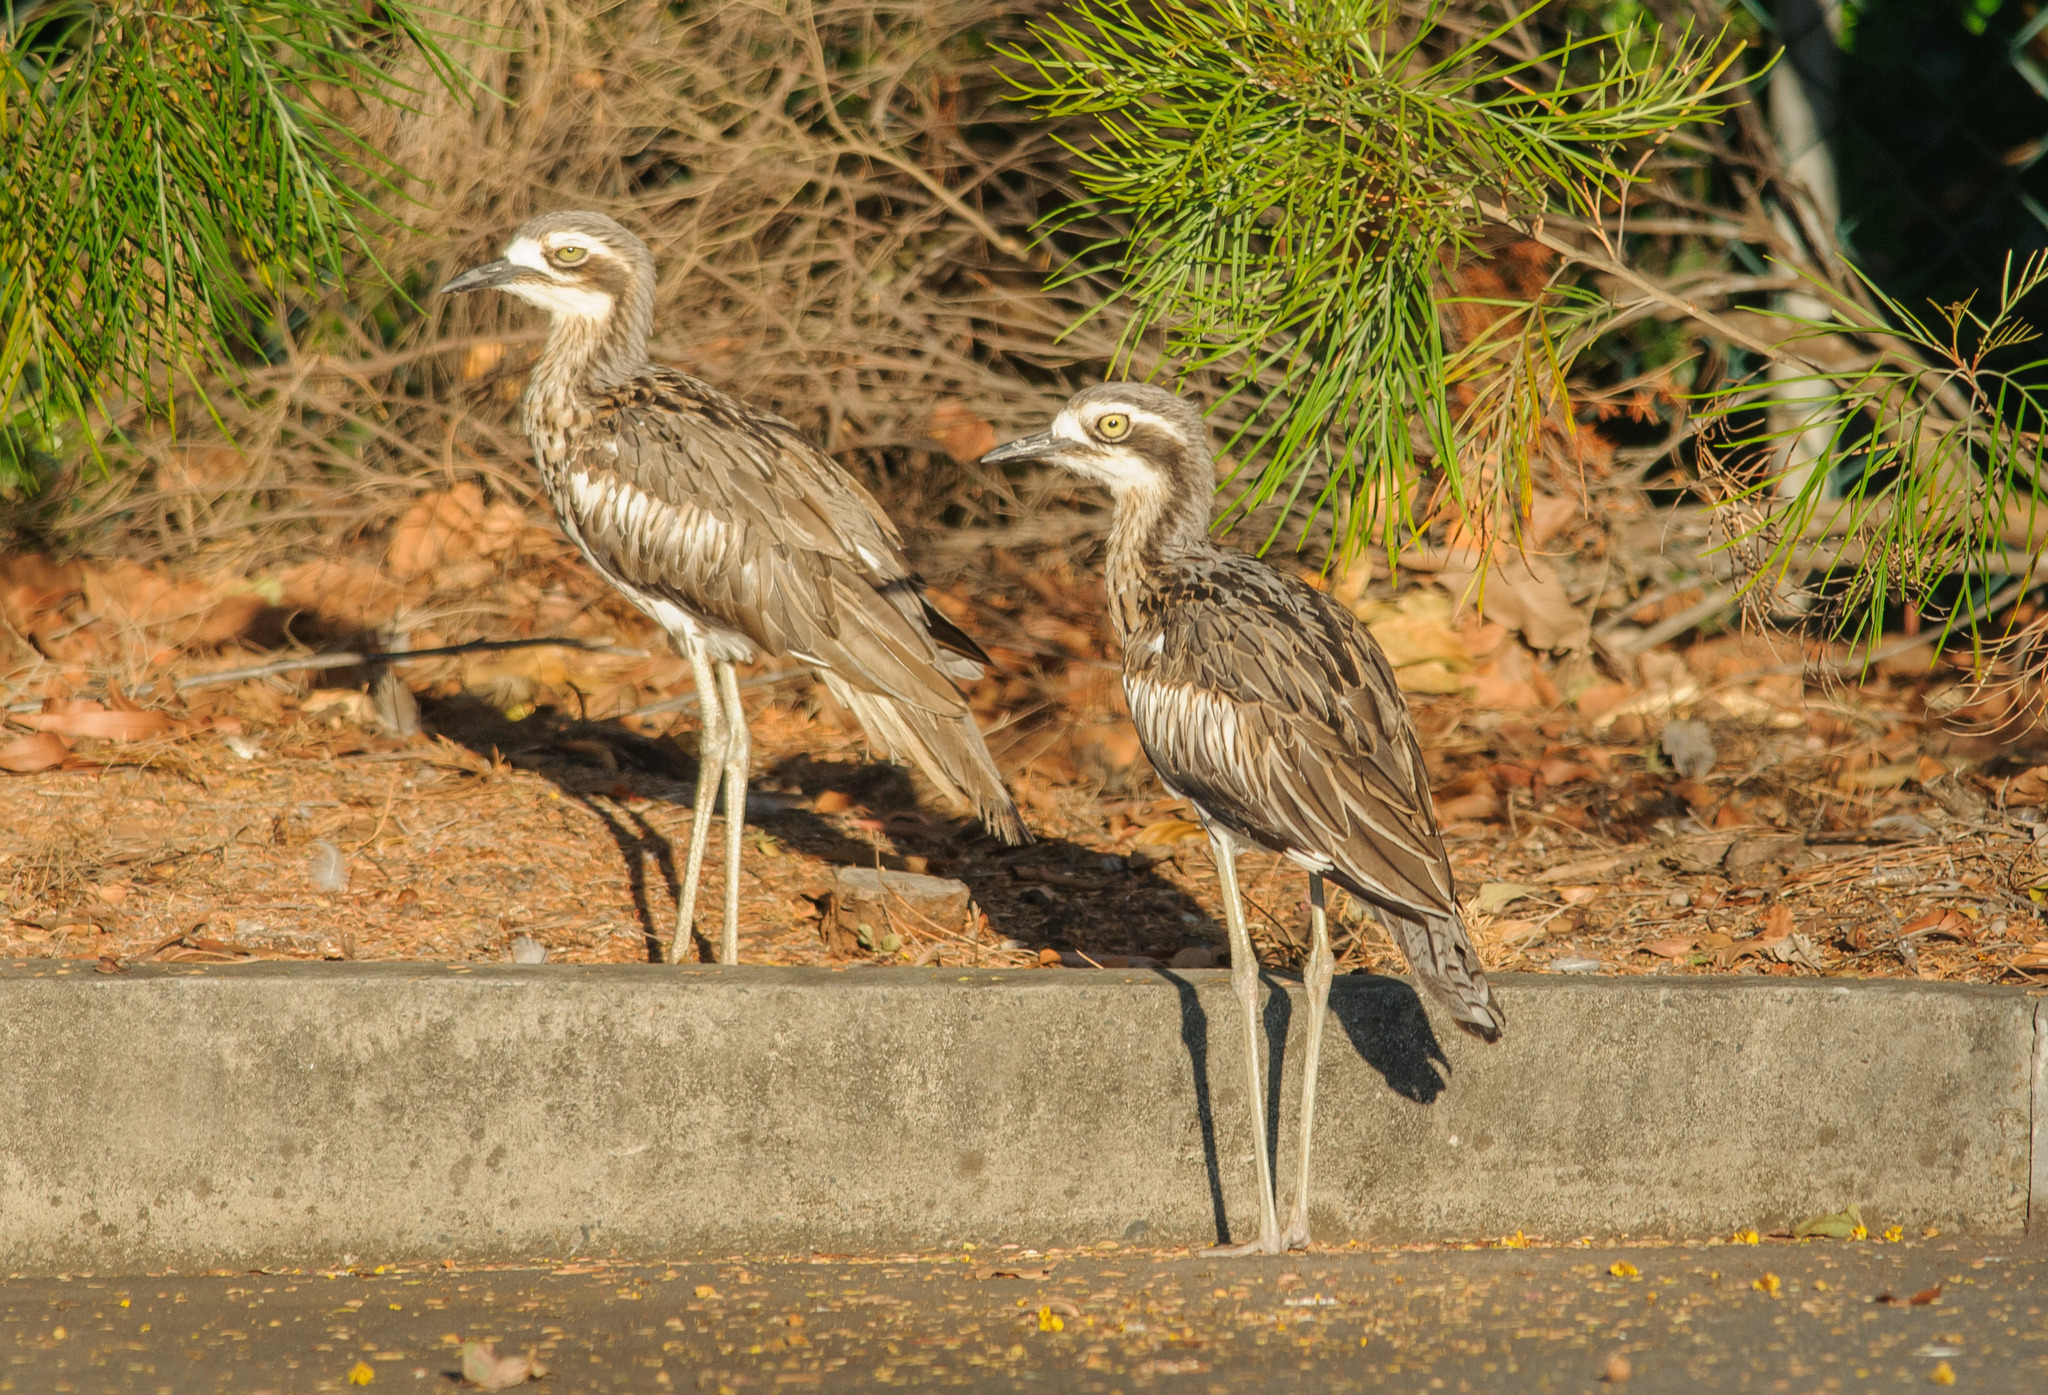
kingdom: Animalia
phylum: Chordata
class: Aves
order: Charadriiformes
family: Burhinidae
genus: Burhinus
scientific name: Burhinus grallarius
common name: Bush stone-curlew
